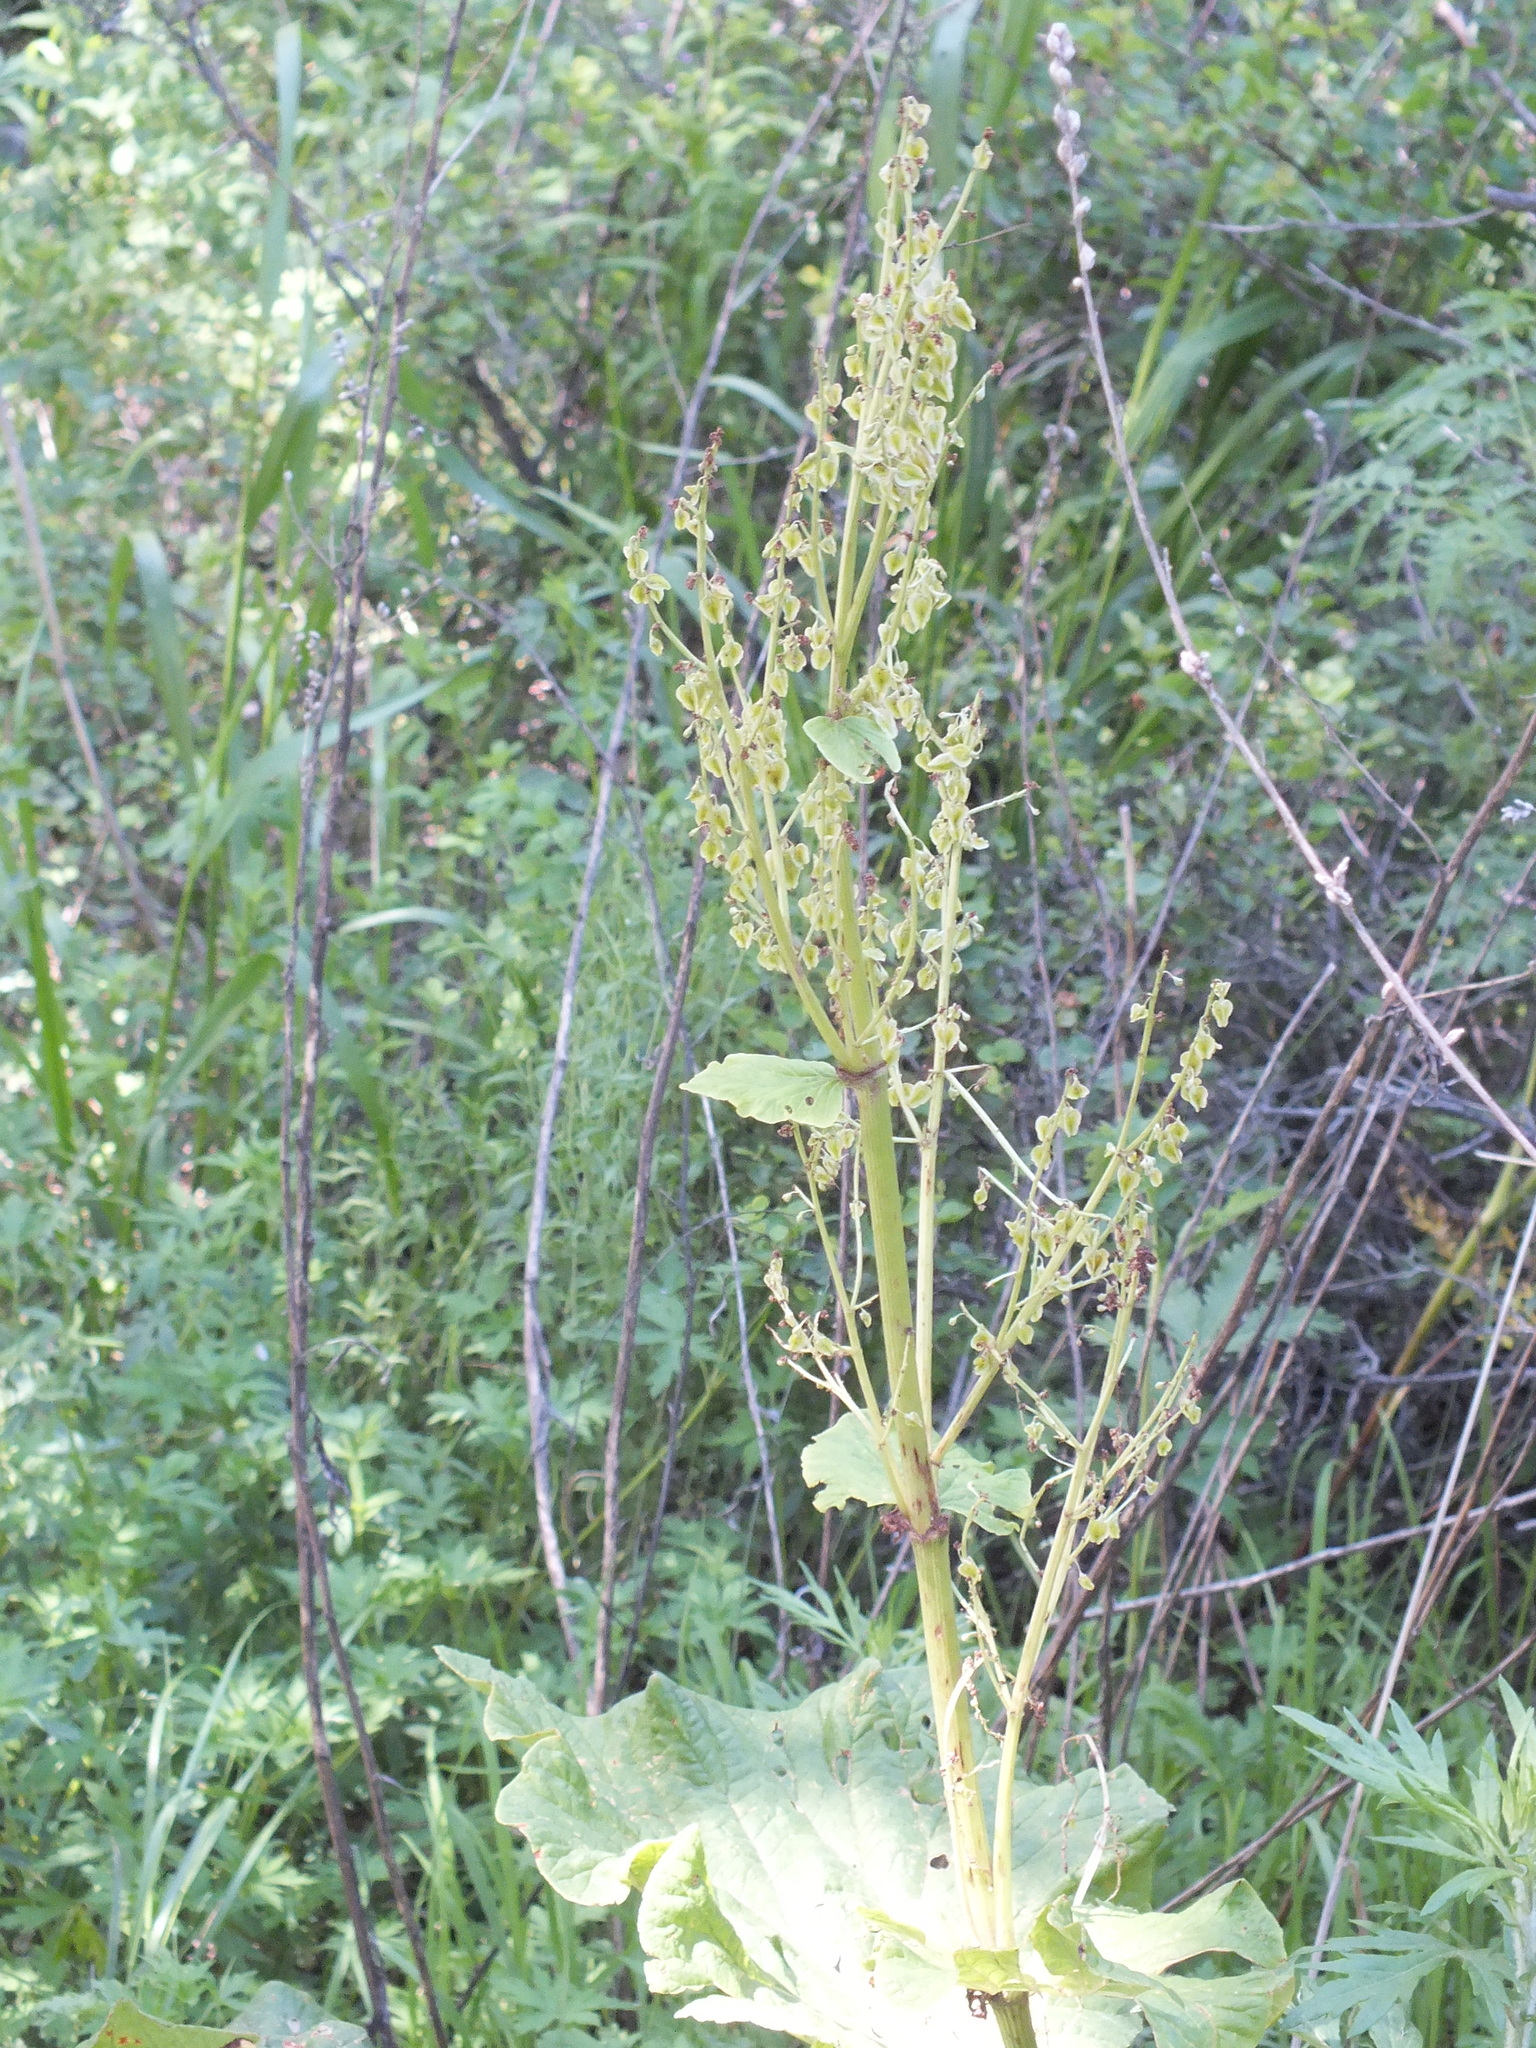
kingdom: Plantae
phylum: Tracheophyta
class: Magnoliopsida
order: Caryophyllales
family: Polygonaceae
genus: Rheum
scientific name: Rheum compactum
